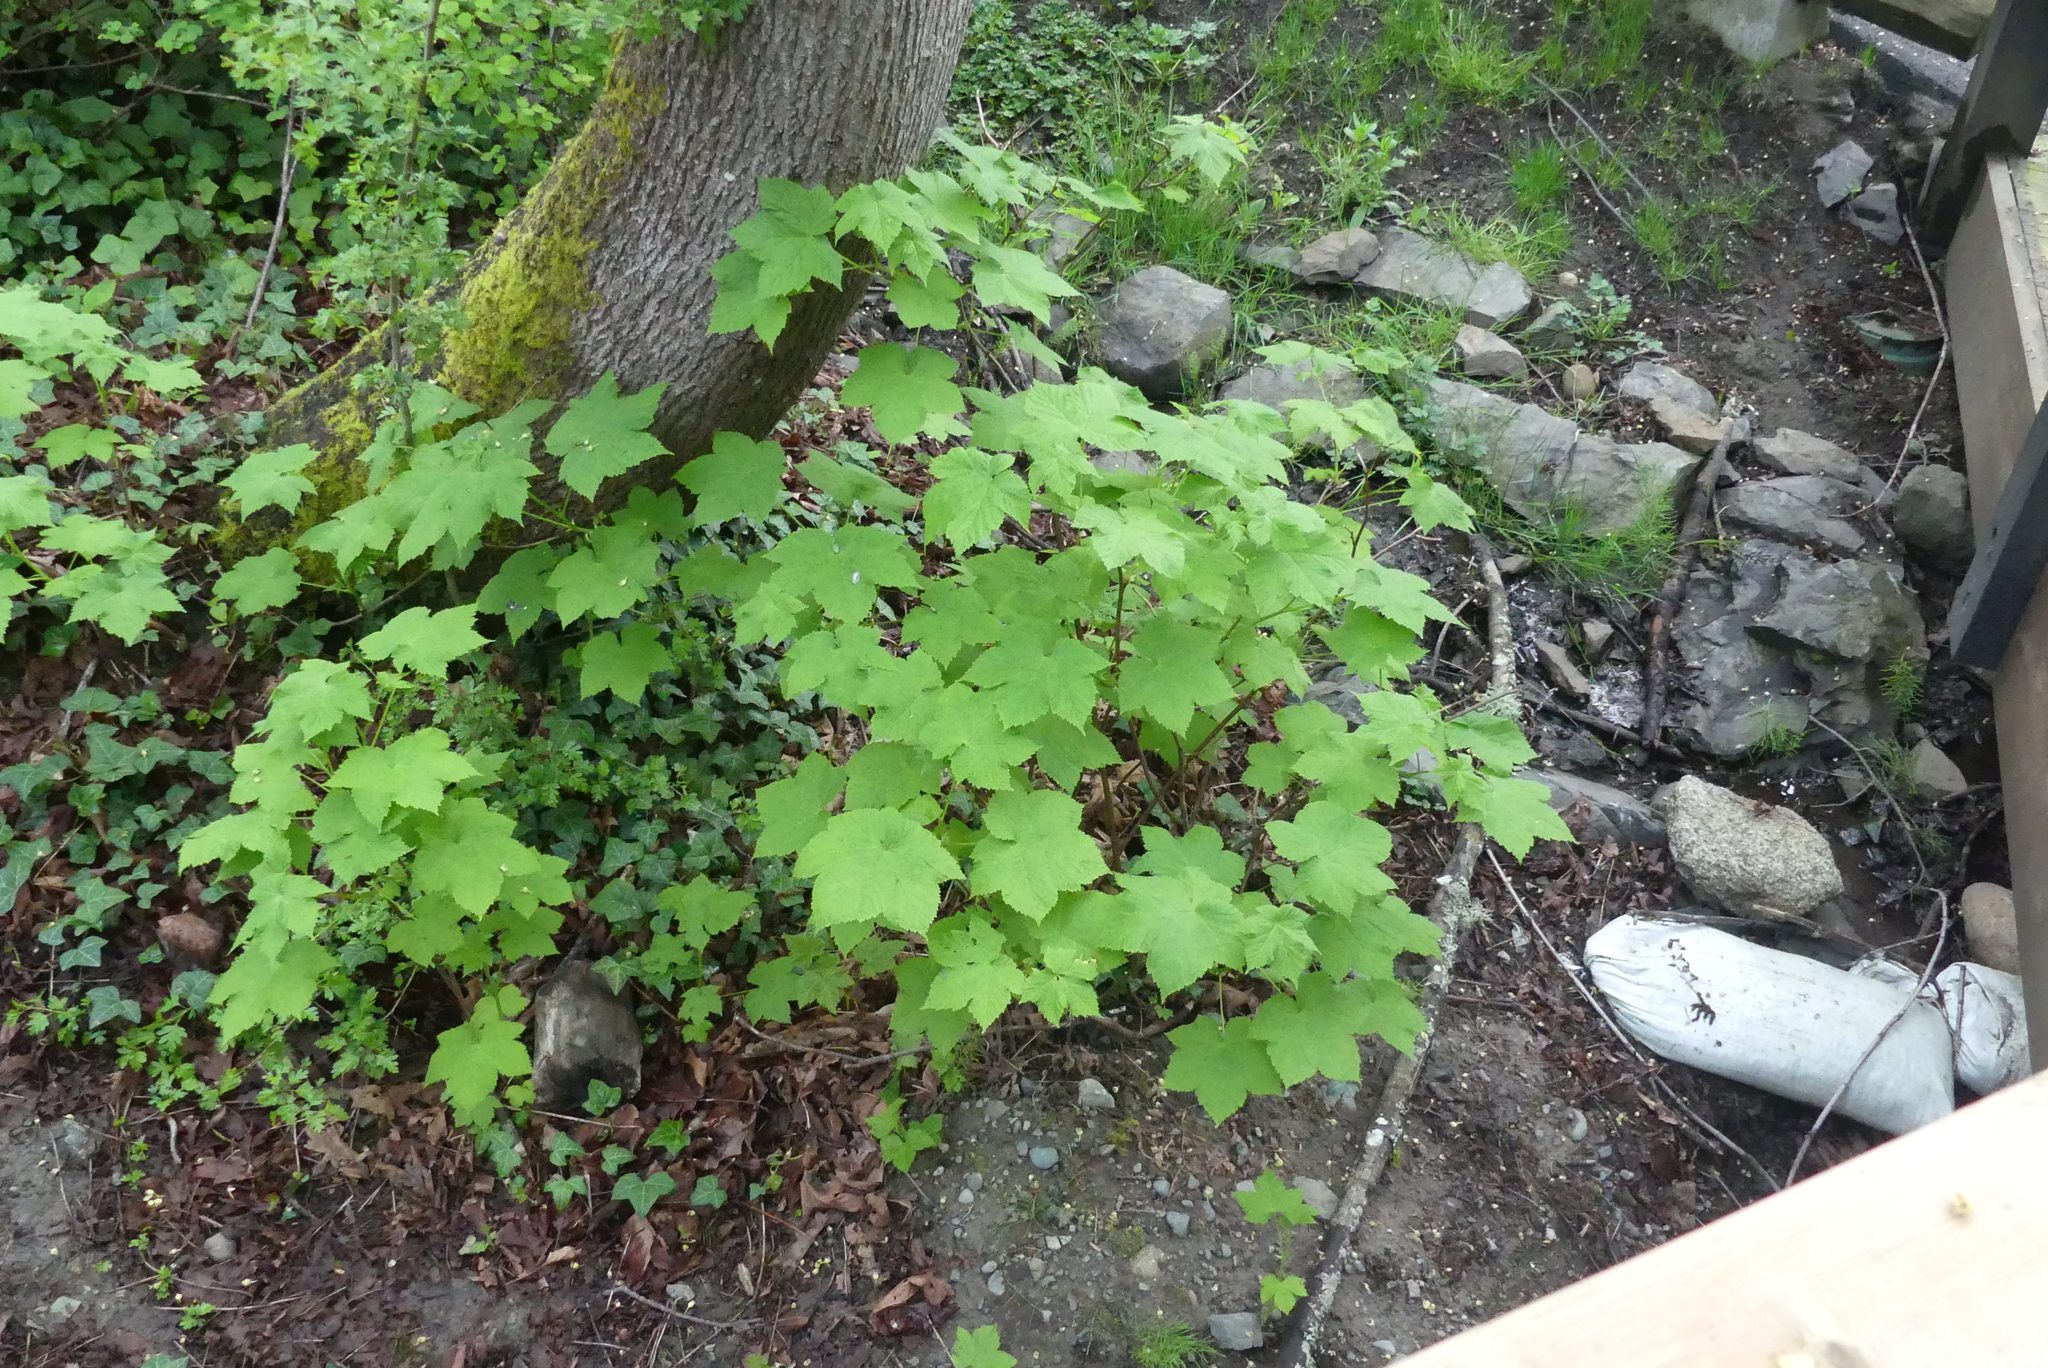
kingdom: Plantae
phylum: Tracheophyta
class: Magnoliopsida
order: Rosales
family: Rosaceae
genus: Rubus
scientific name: Rubus parviflorus
